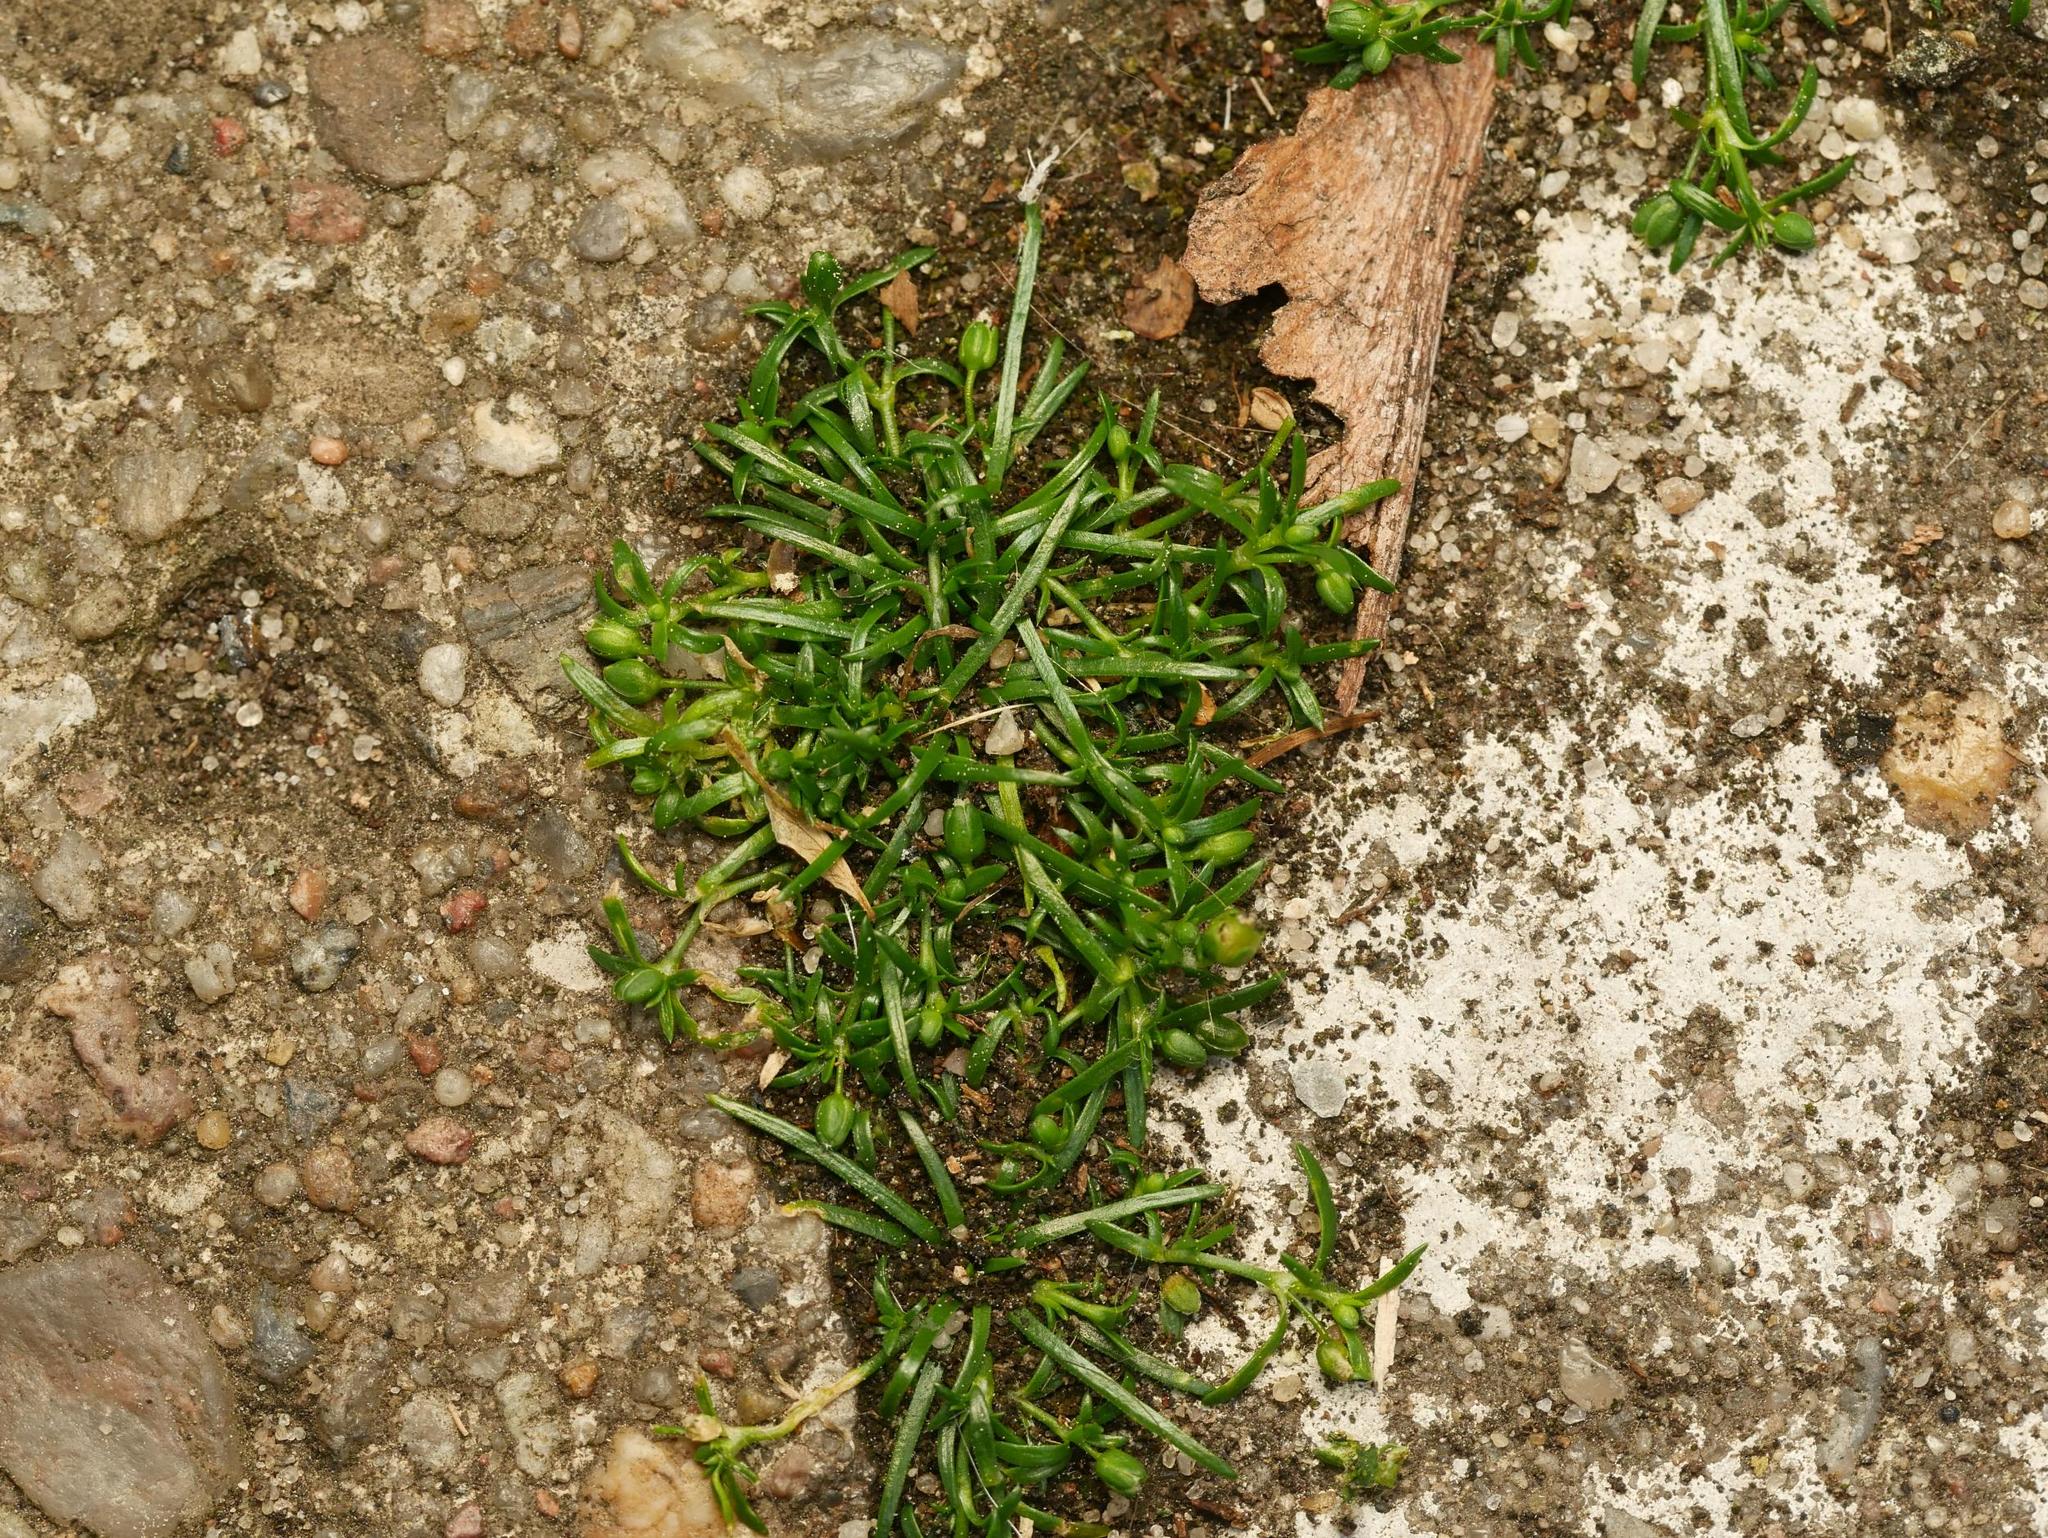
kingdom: Plantae
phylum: Tracheophyta
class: Magnoliopsida
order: Caryophyllales
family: Caryophyllaceae
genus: Sagina
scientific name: Sagina procumbens
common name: Procumbent pearlwort
